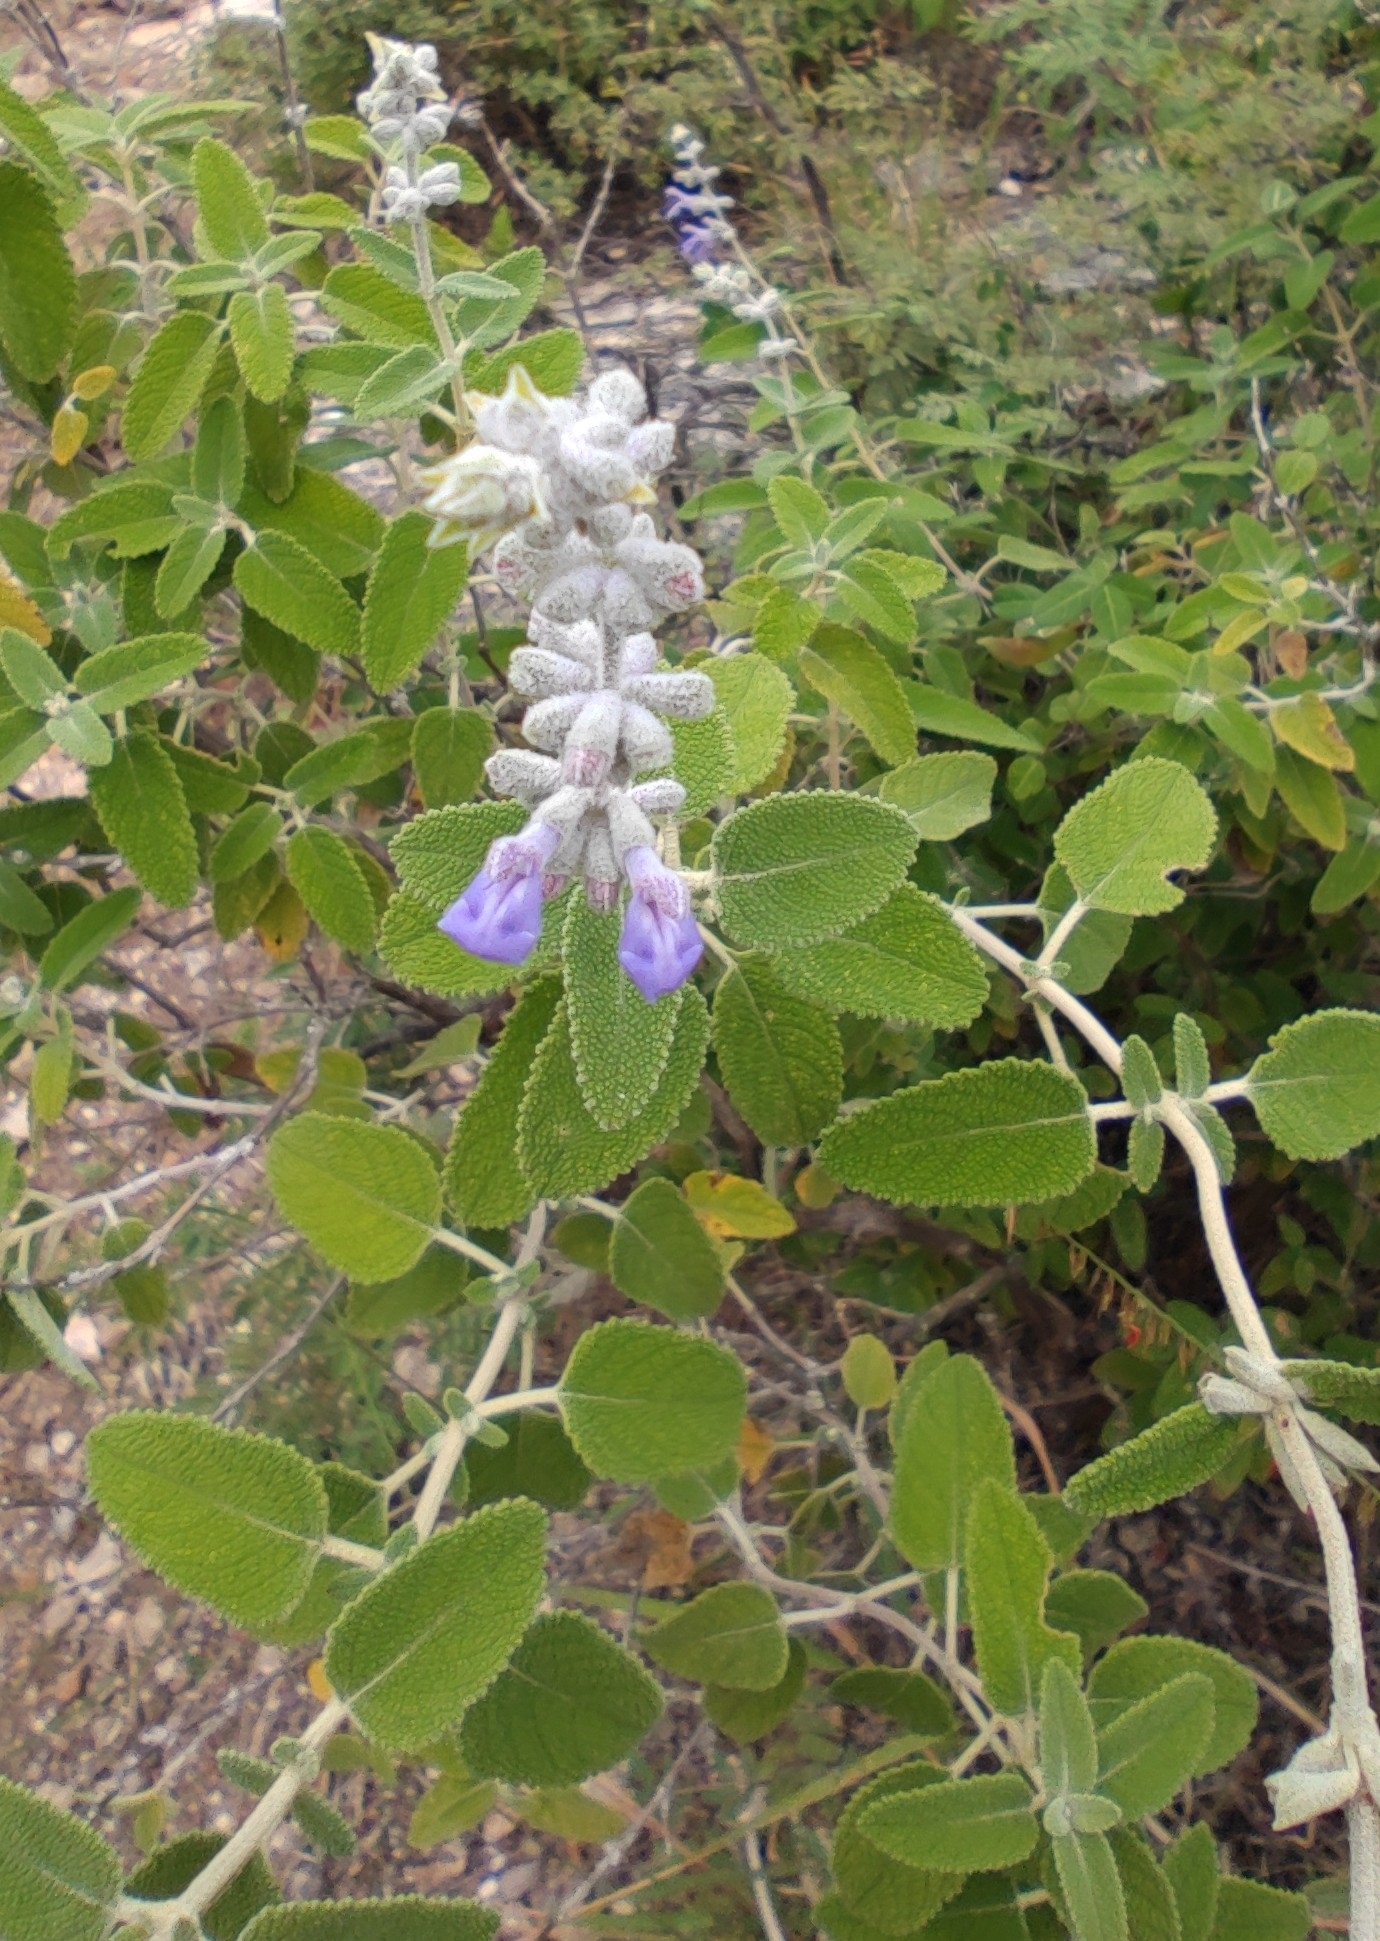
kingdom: Plantae
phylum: Tracheophyta
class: Magnoliopsida
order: Lamiales
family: Lamiaceae
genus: Salvia
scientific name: Salvia fruticulosa
